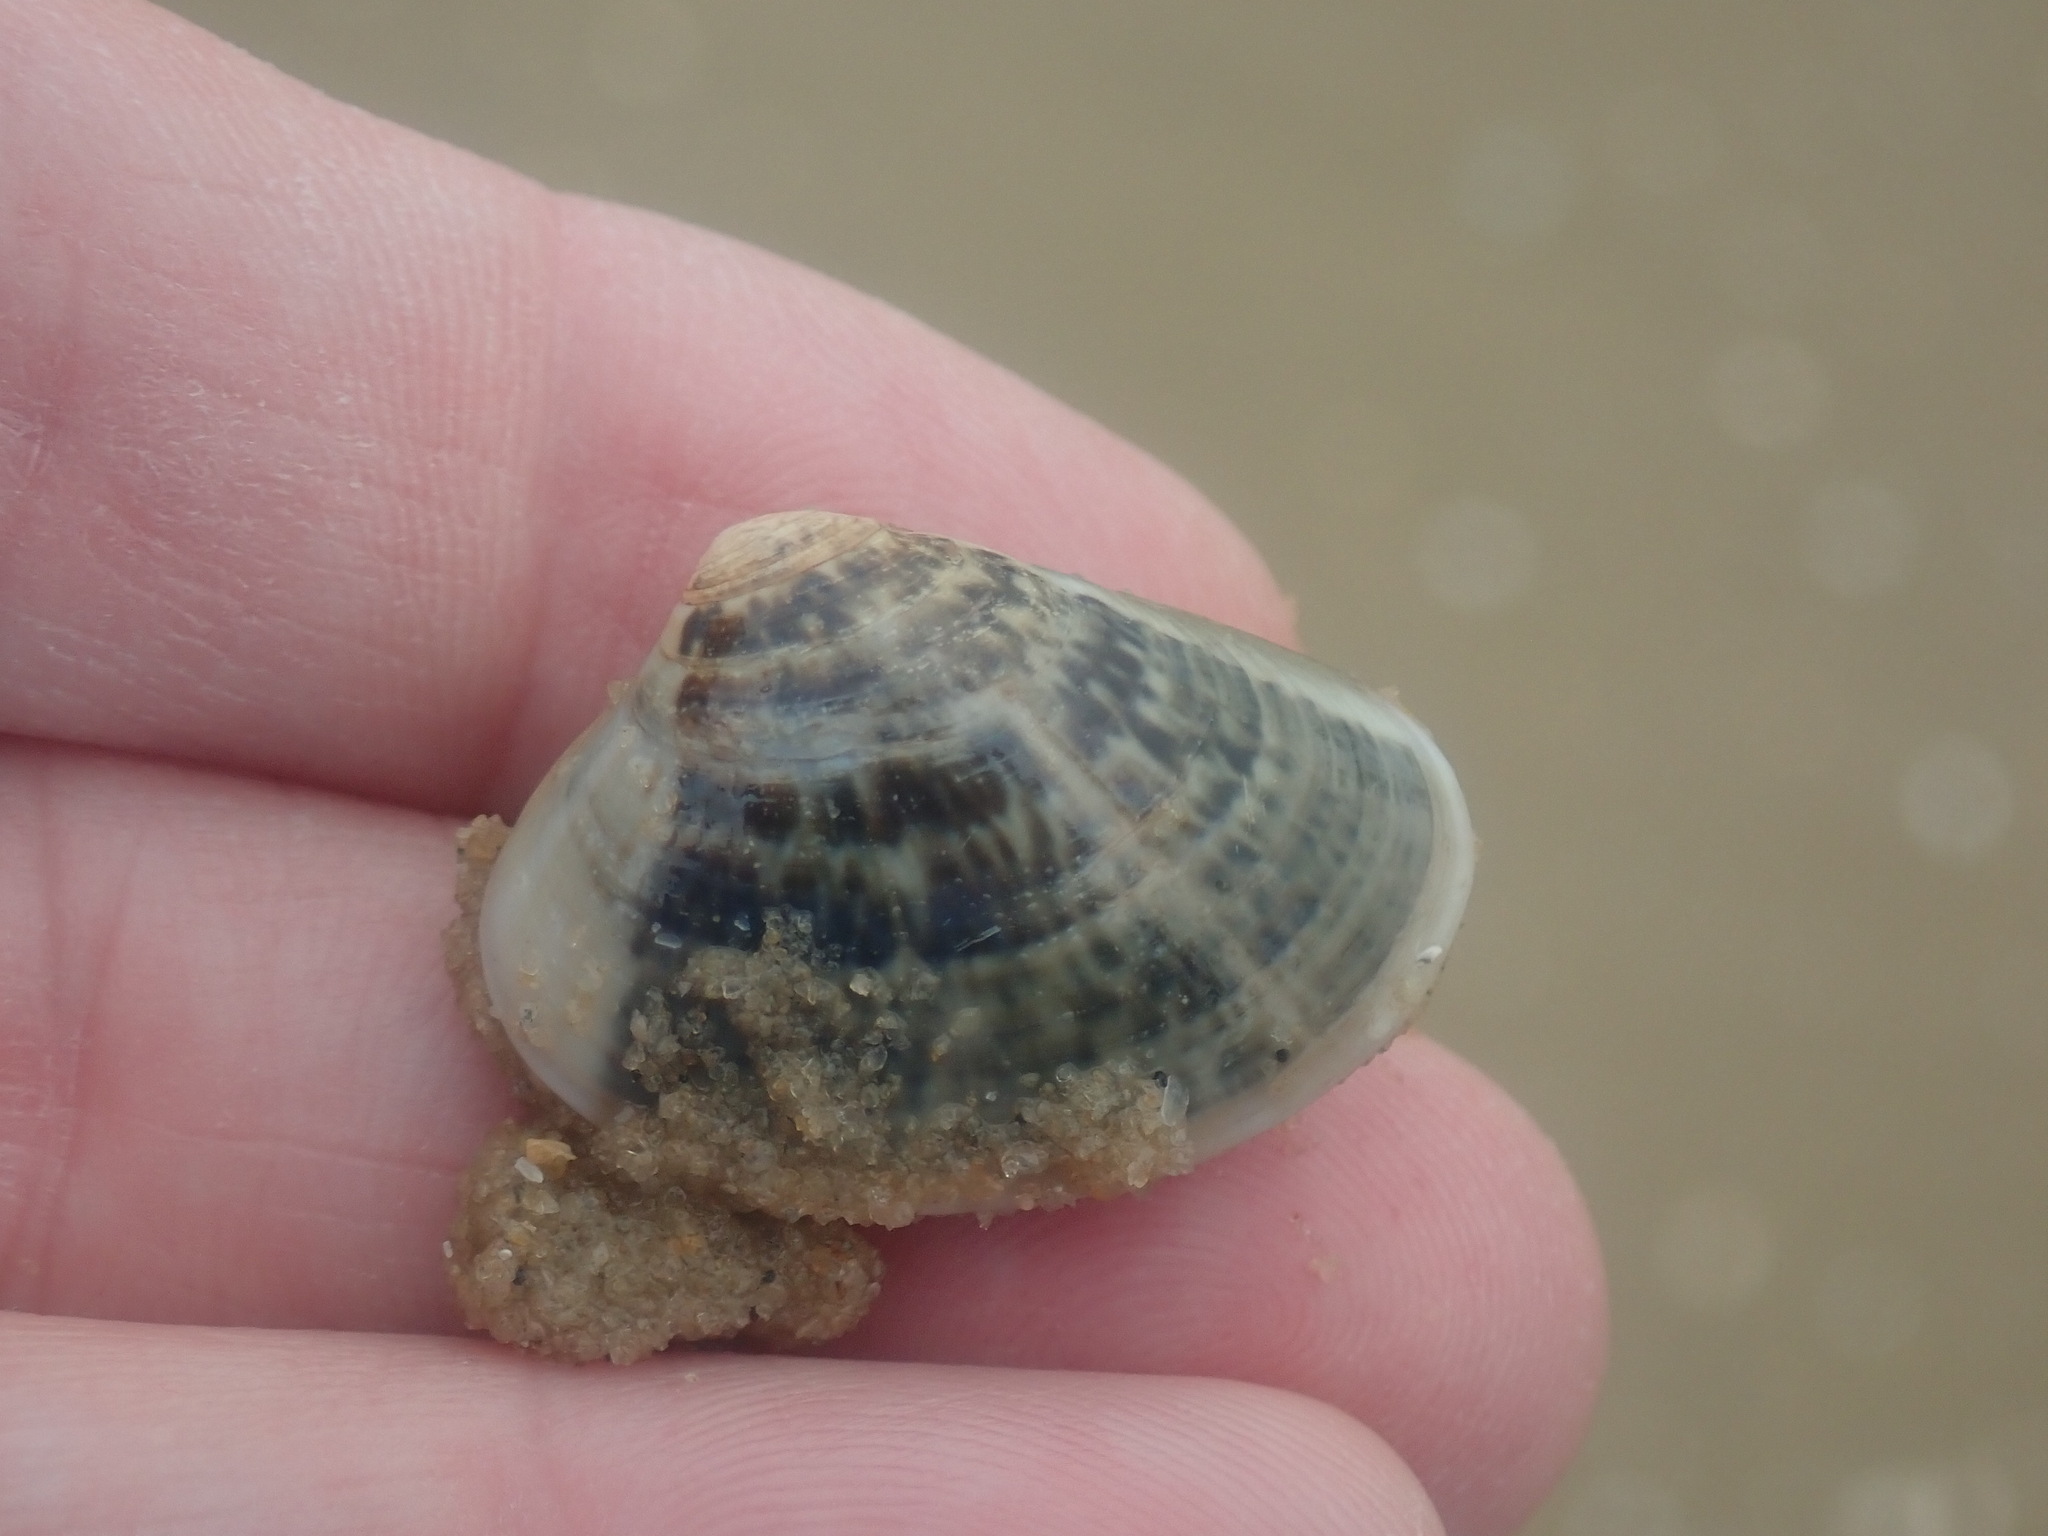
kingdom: Animalia
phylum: Mollusca
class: Bivalvia
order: Venerida
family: Veneridae
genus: Eumarcia
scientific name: Eumarcia fumigata
